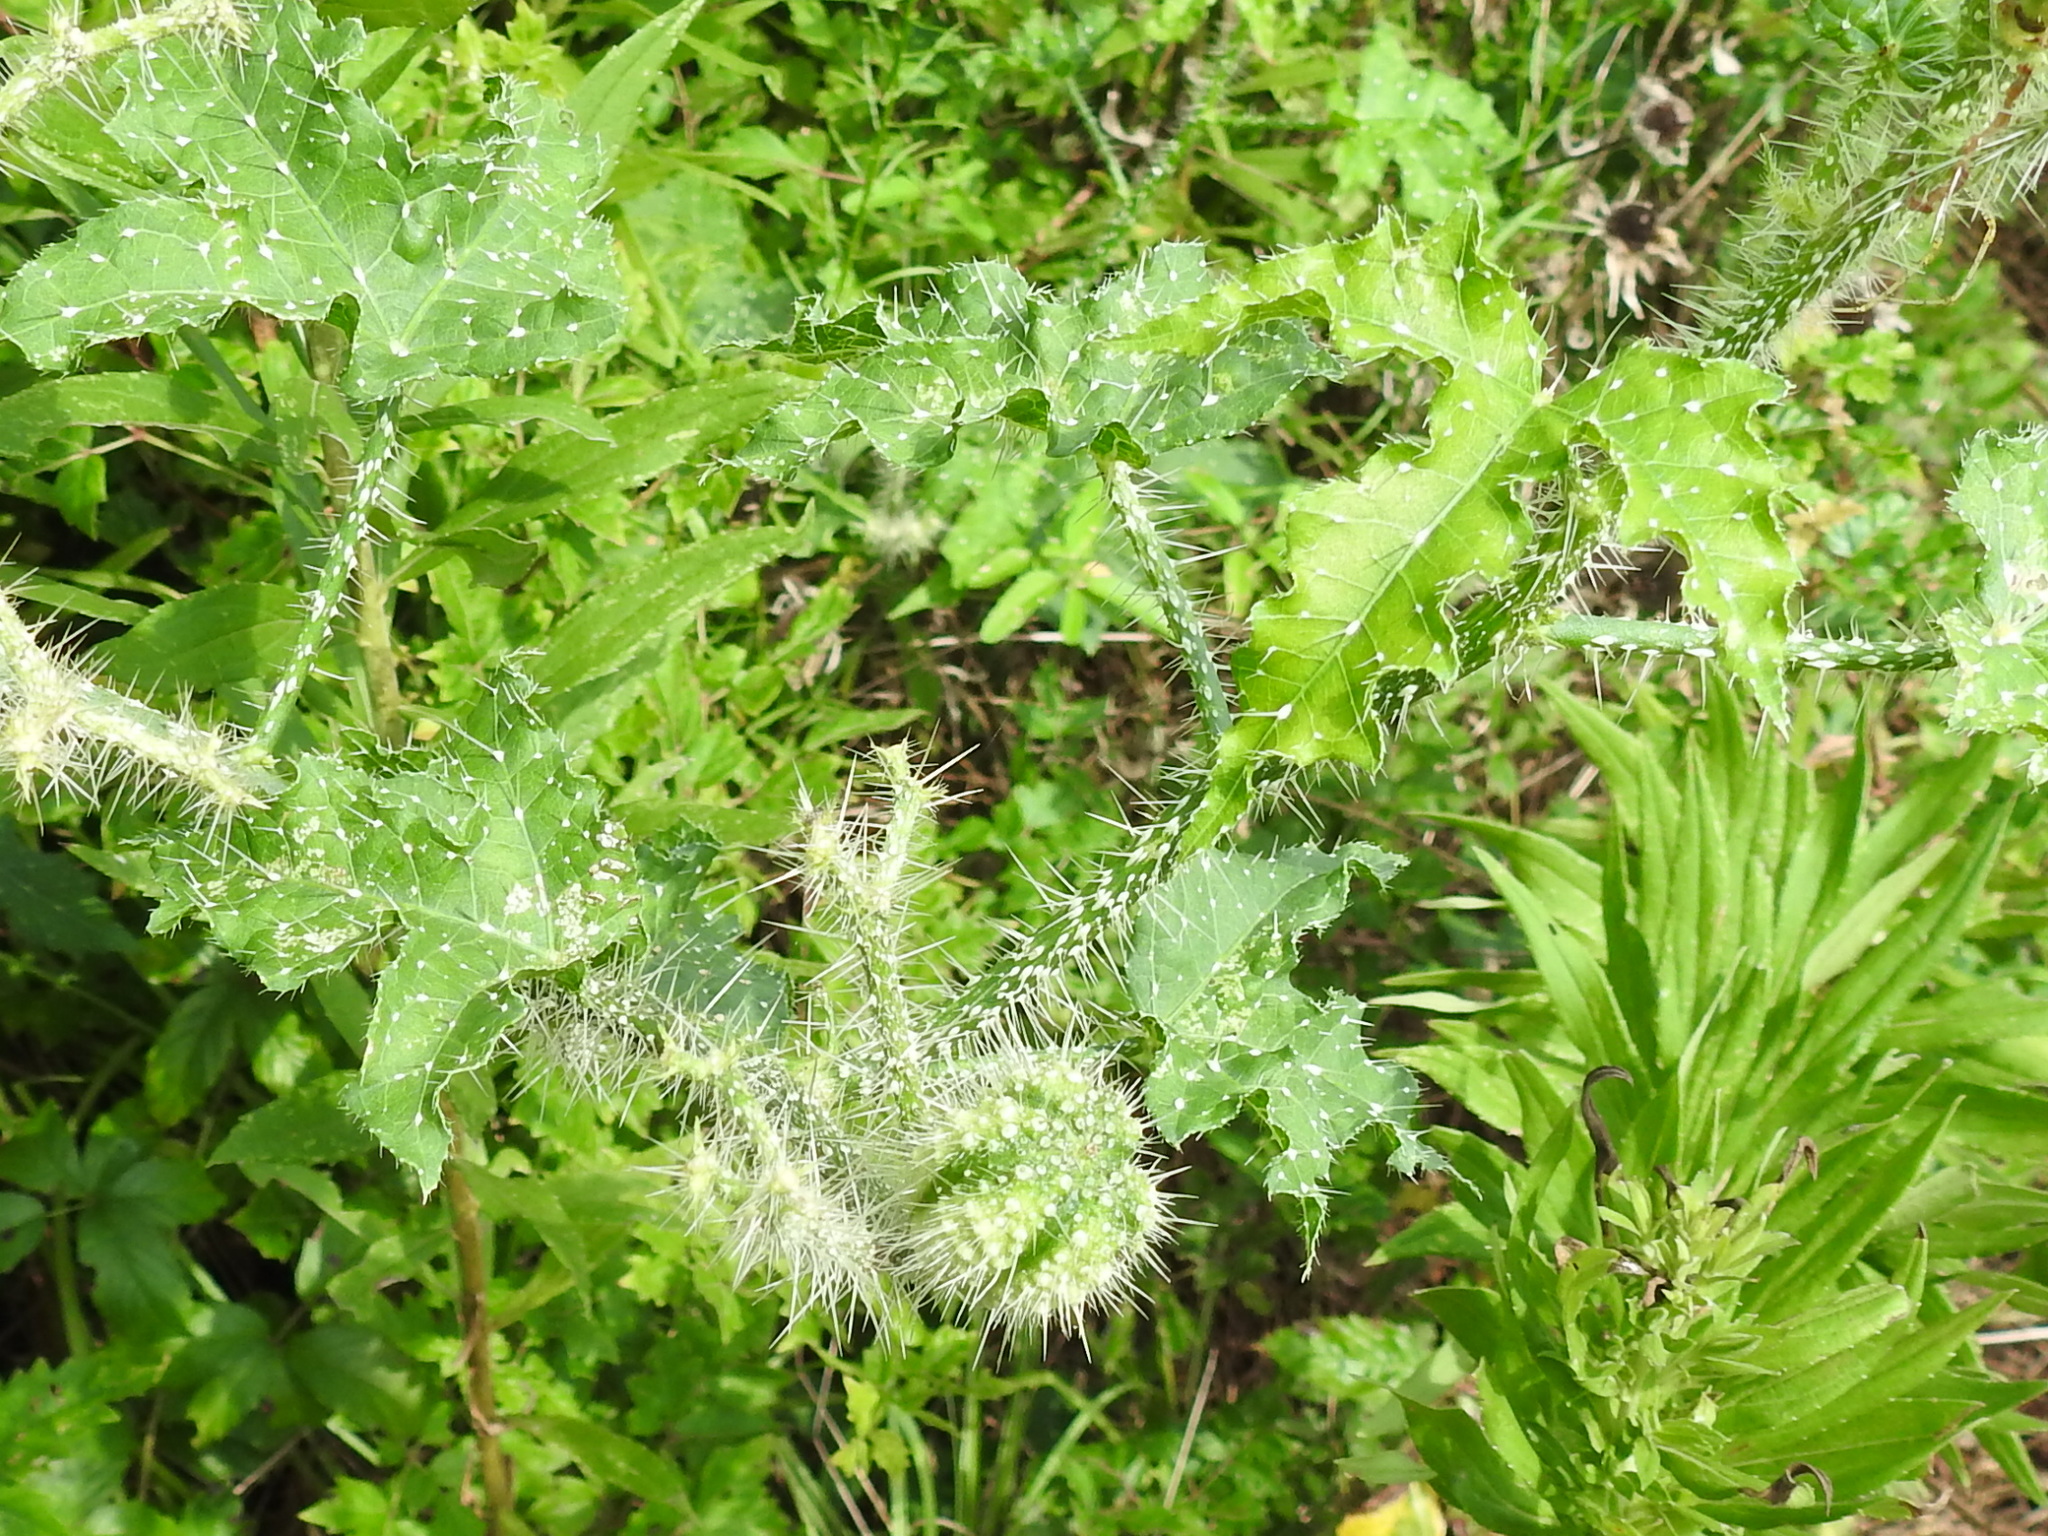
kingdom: Plantae
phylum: Tracheophyta
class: Magnoliopsida
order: Malpighiales
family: Euphorbiaceae
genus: Cnidoscolus
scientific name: Cnidoscolus texanus
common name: Texas bull-nettle
